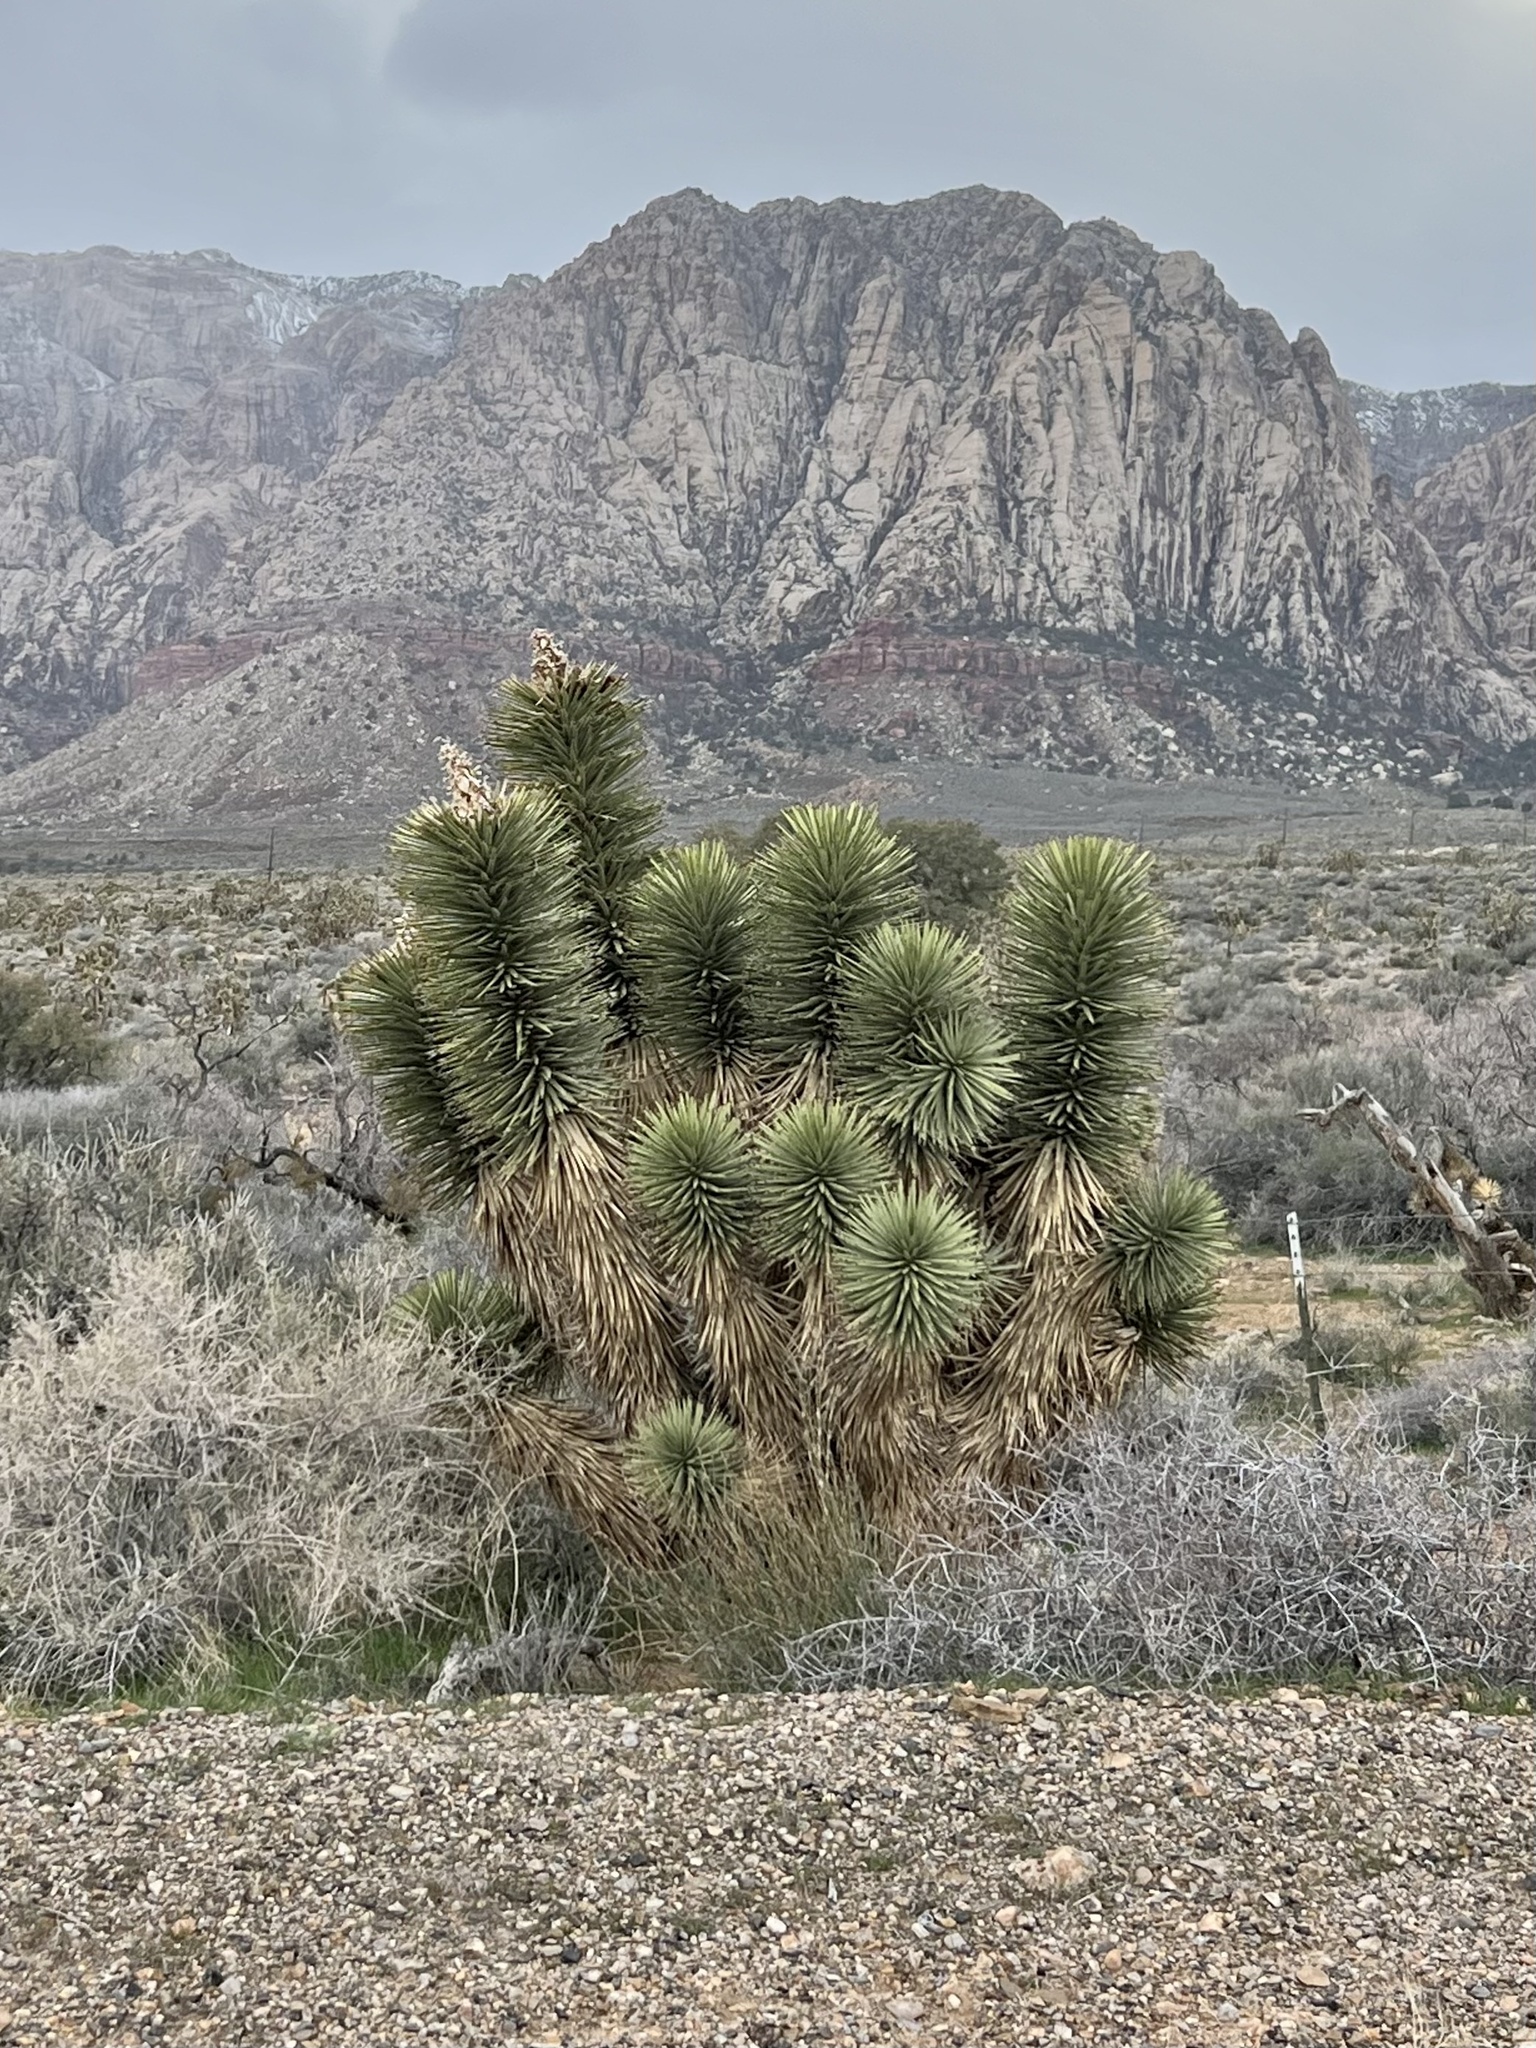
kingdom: Plantae
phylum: Tracheophyta
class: Liliopsida
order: Asparagales
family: Asparagaceae
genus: Yucca
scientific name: Yucca brevifolia
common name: Joshua tree
